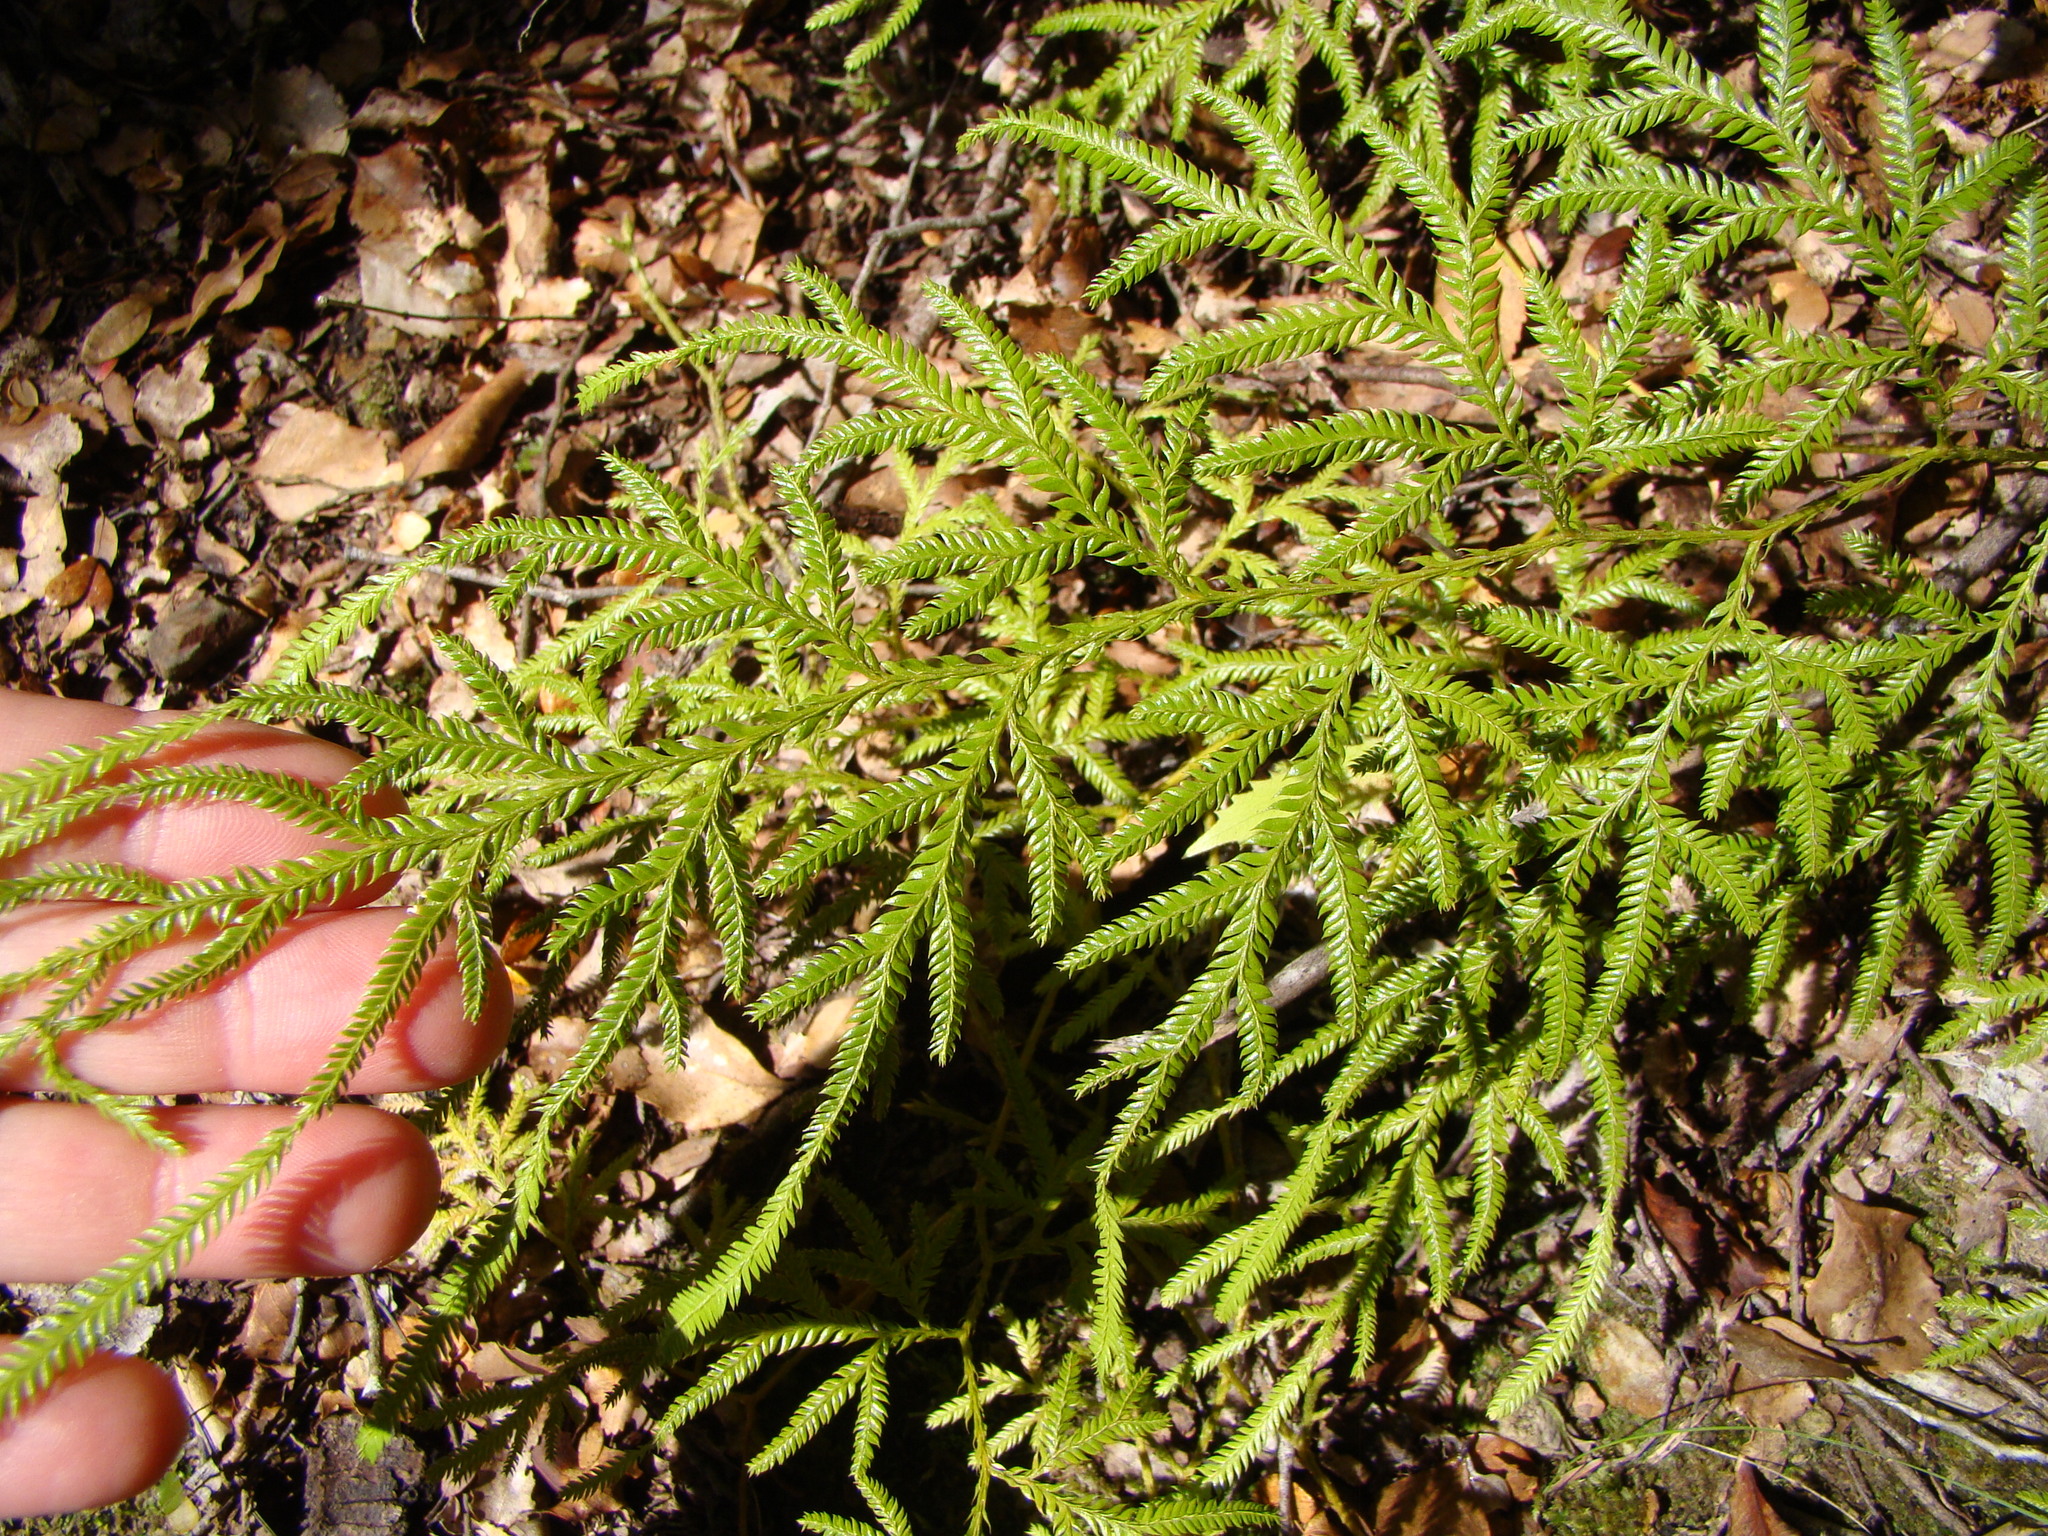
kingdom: Plantae
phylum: Tracheophyta
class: Lycopodiopsida
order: Lycopodiales
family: Lycopodiaceae
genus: Lycopodium
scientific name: Lycopodium volubile
